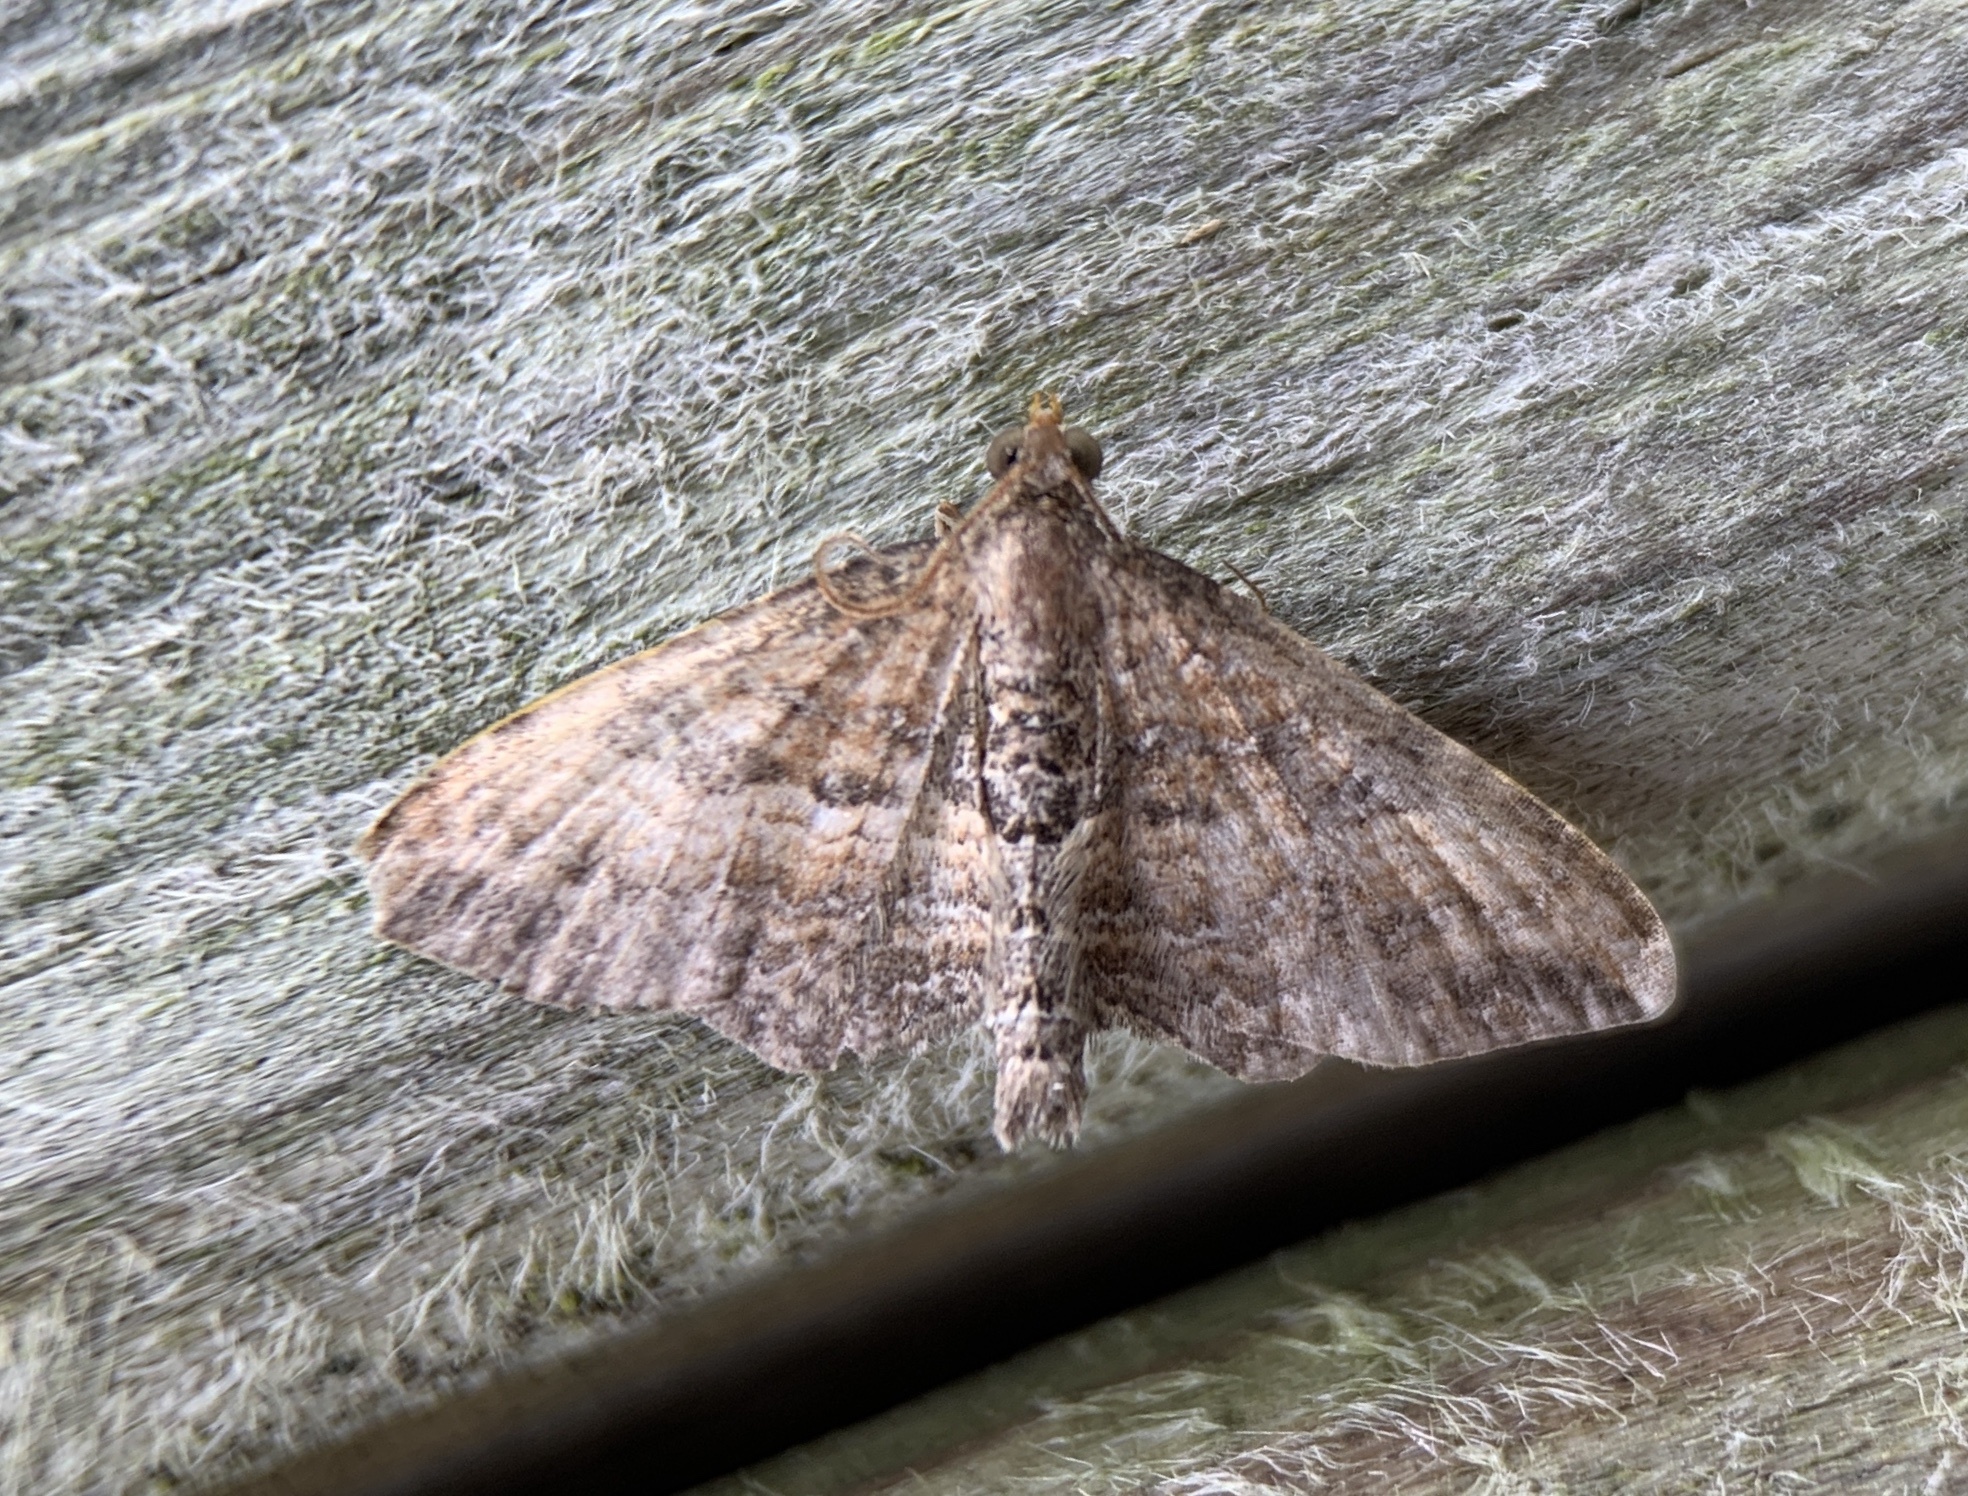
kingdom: Animalia
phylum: Arthropoda
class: Insecta
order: Lepidoptera
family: Geometridae
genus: Orthonama
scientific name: Orthonama obstipata
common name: The gem
